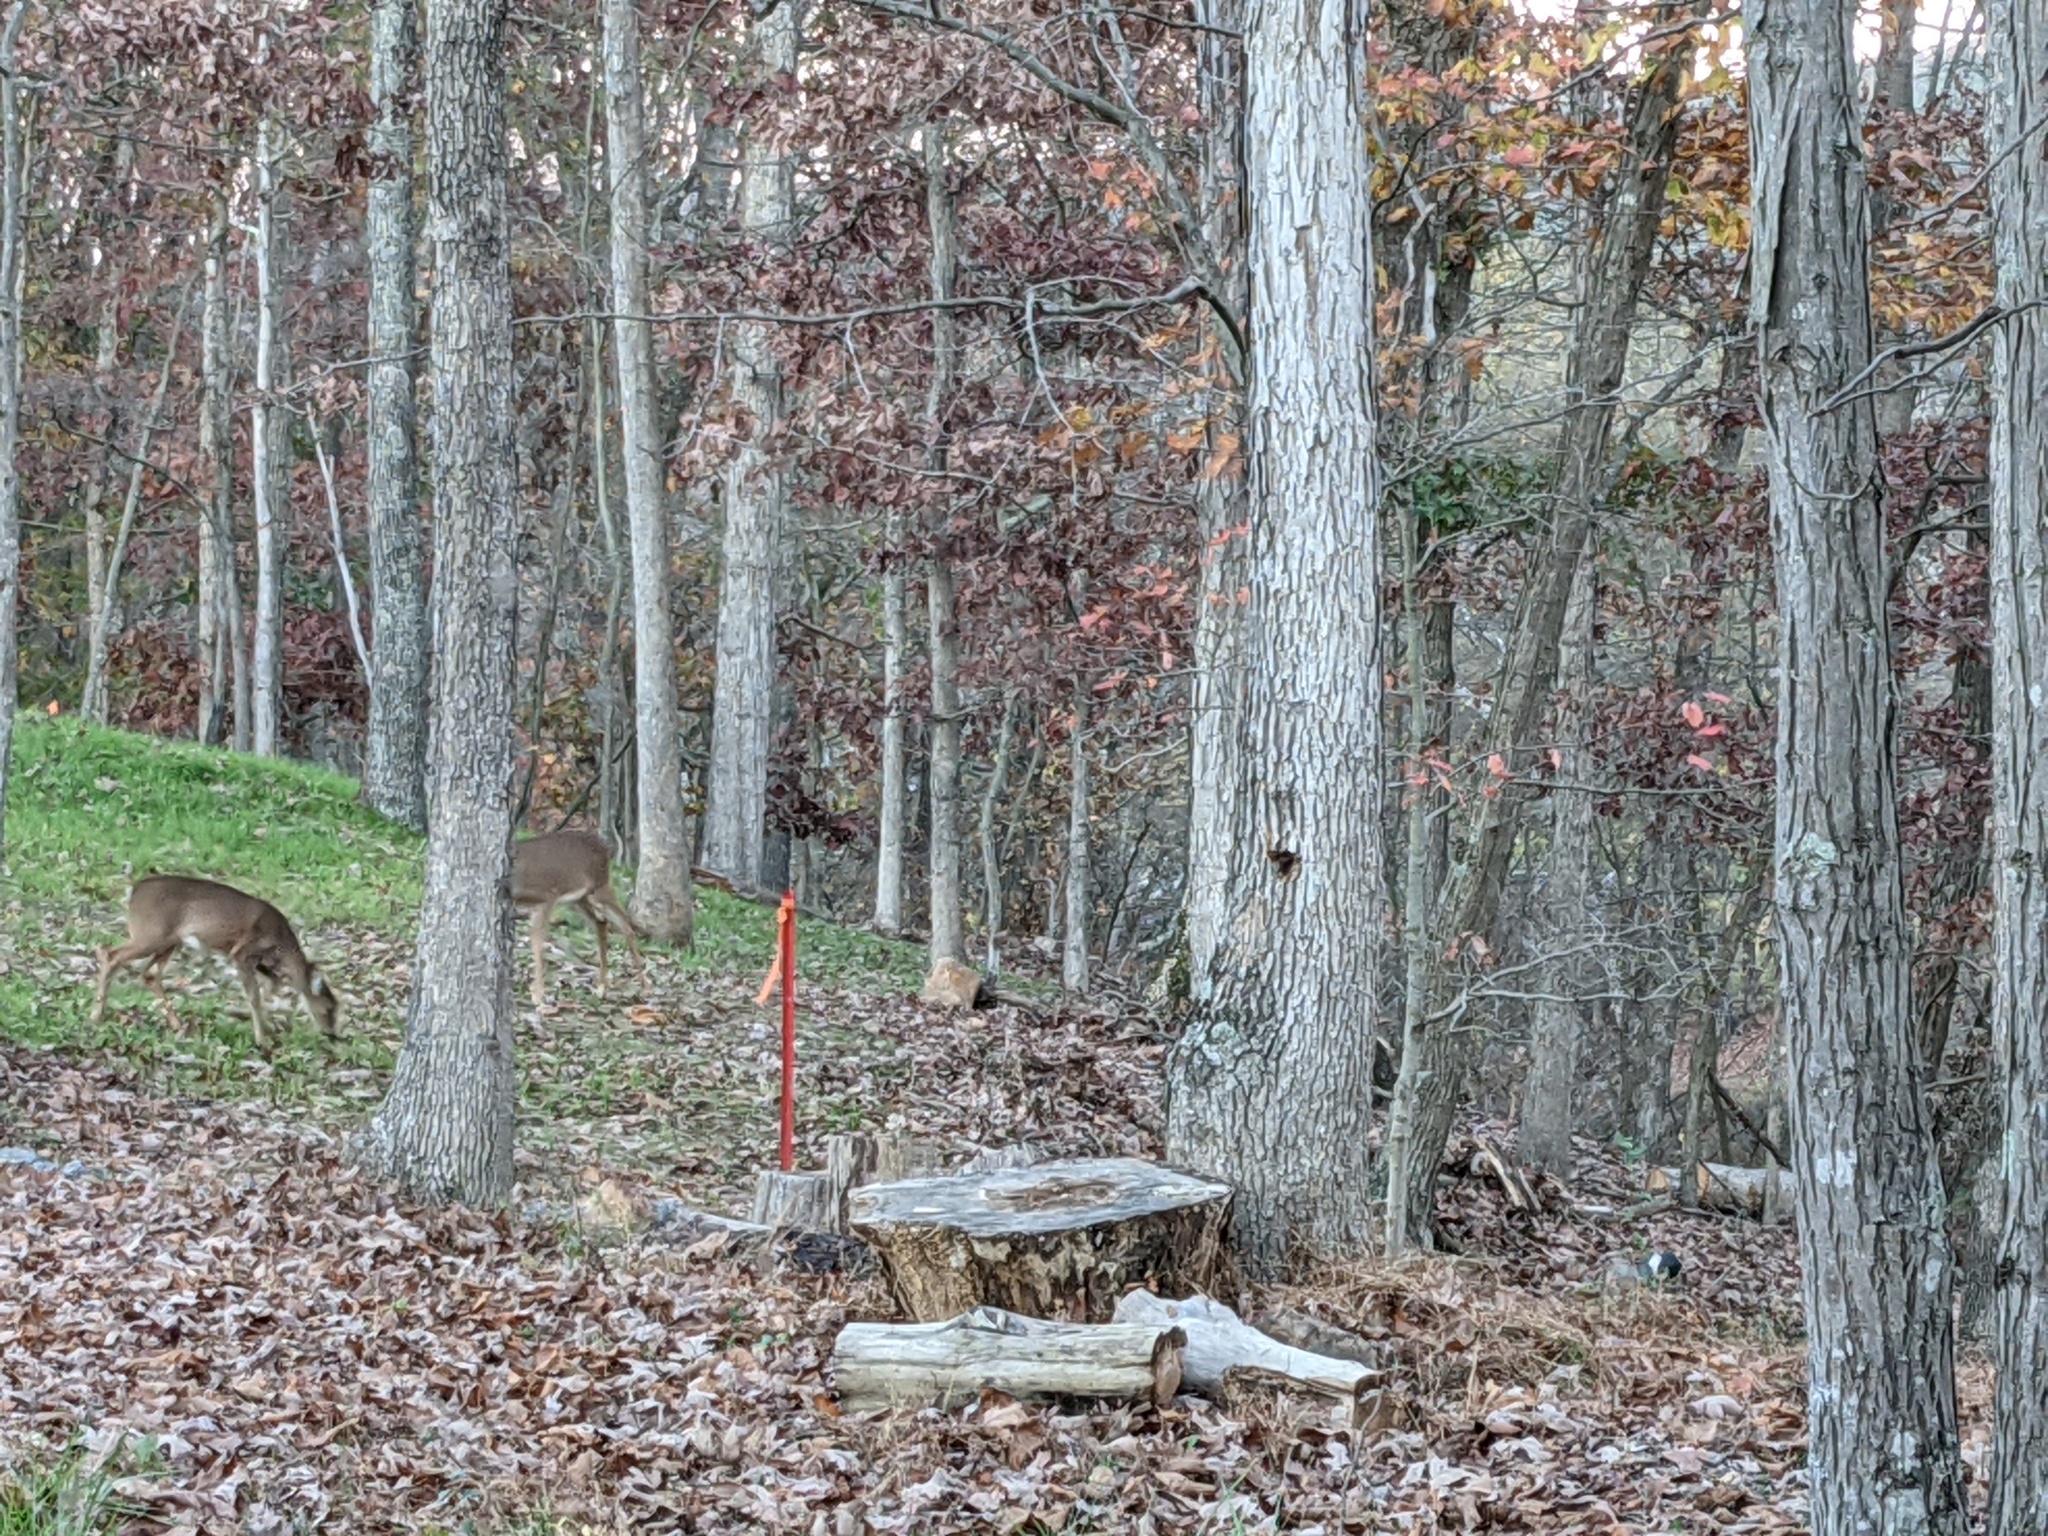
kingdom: Animalia
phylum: Chordata
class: Mammalia
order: Artiodactyla
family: Cervidae
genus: Odocoileus
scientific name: Odocoileus virginianus
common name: White-tailed deer
